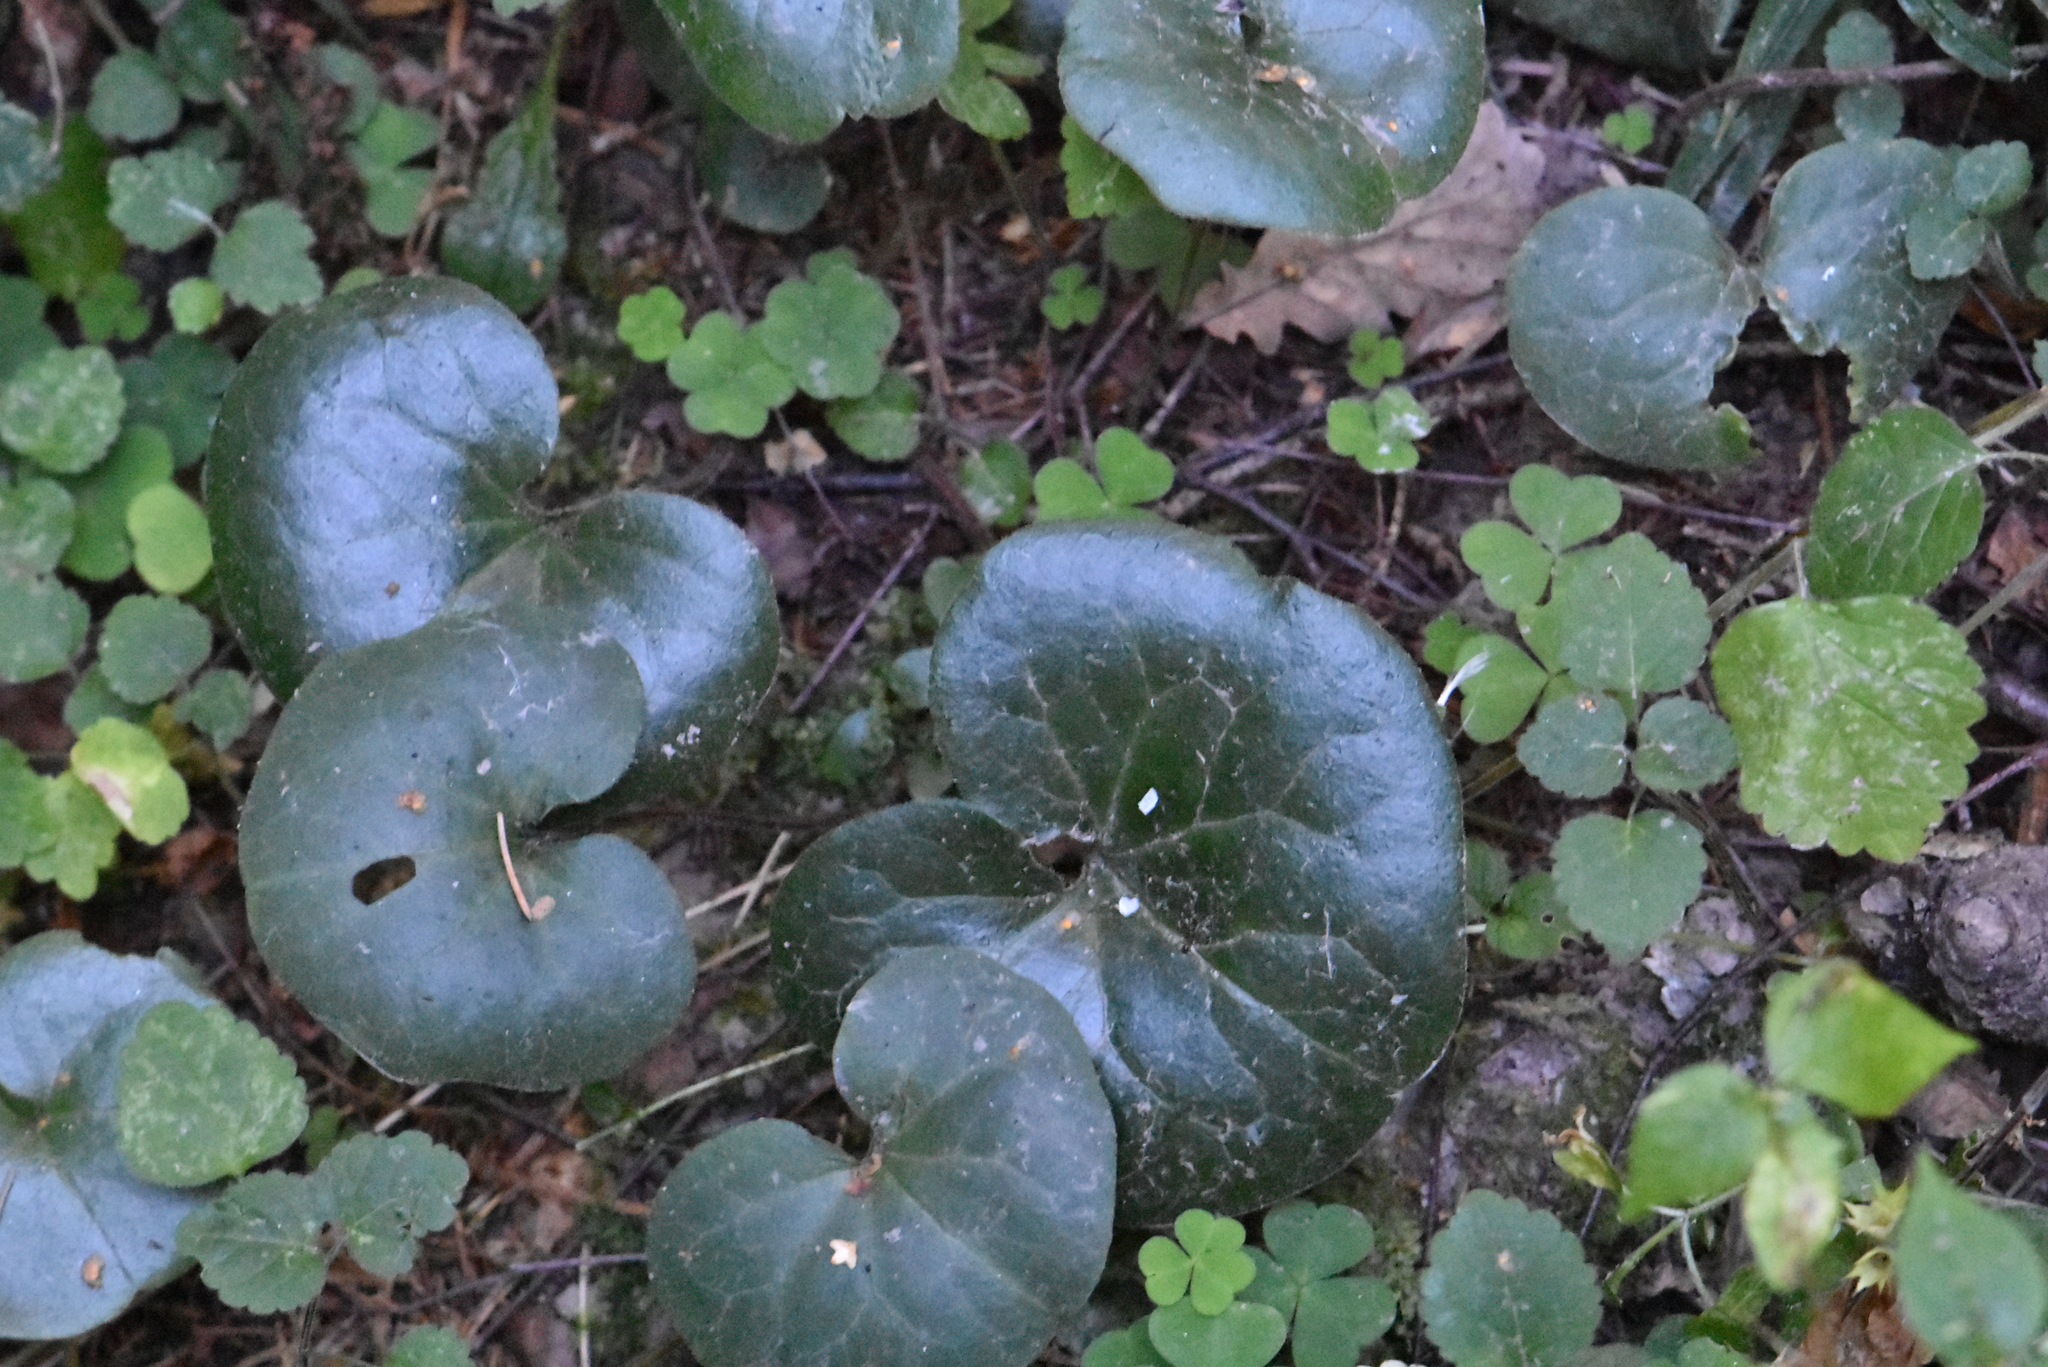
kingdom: Plantae
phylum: Tracheophyta
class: Magnoliopsida
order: Piperales
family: Aristolochiaceae
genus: Asarum
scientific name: Asarum europaeum
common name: Asarabacca
